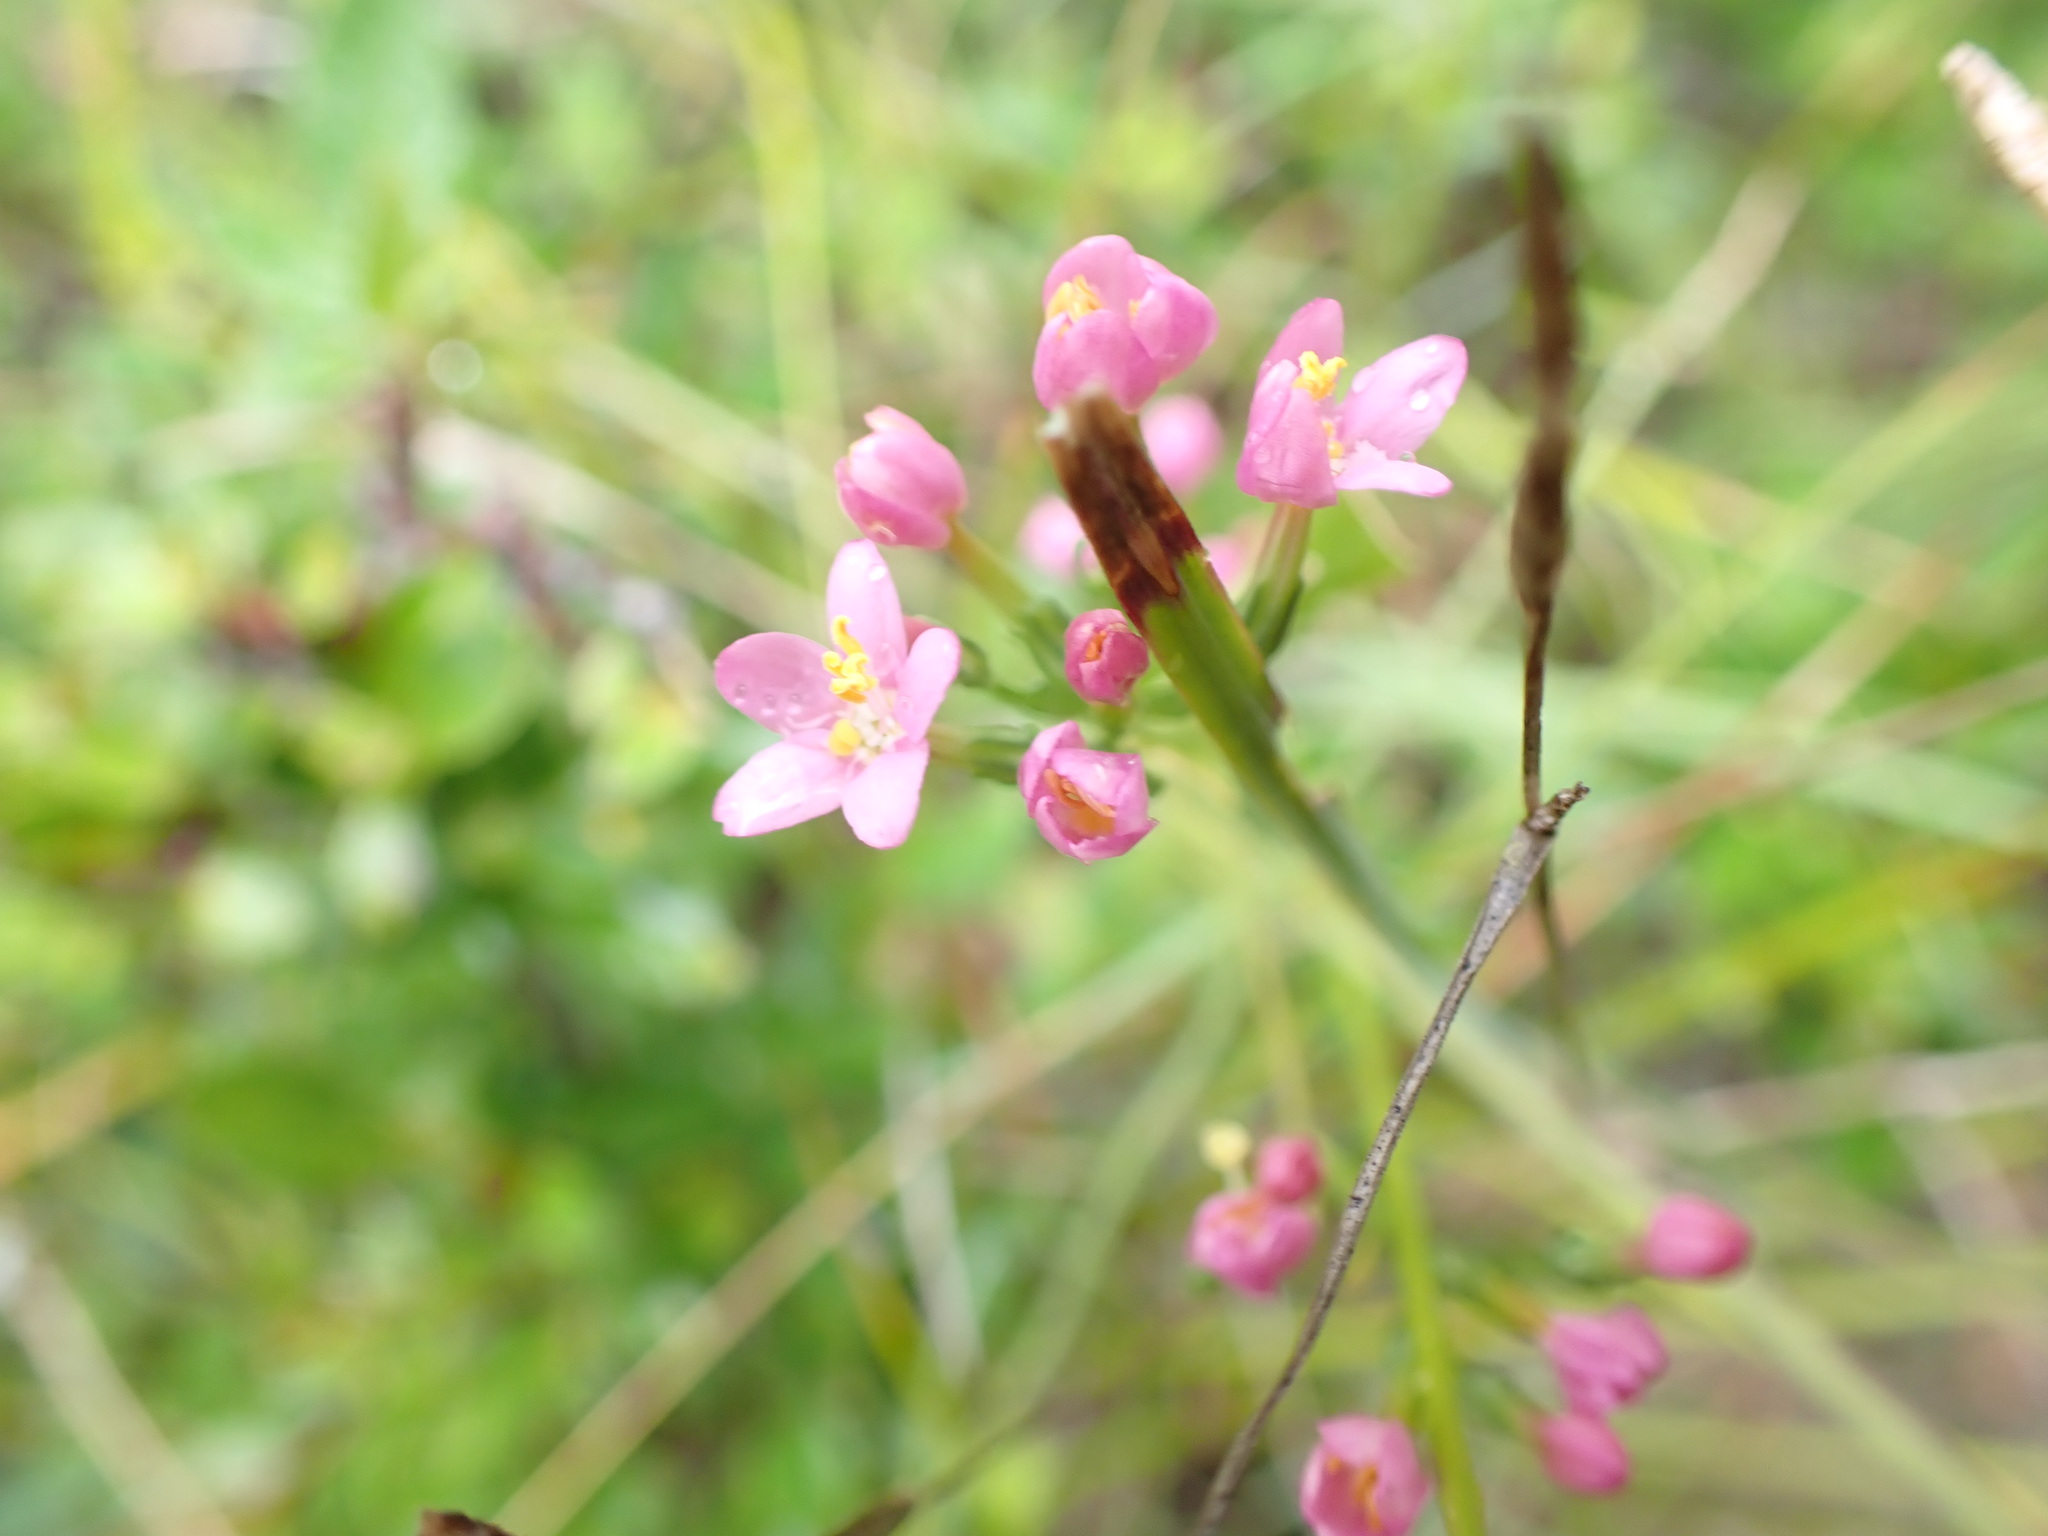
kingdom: Plantae
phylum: Tracheophyta
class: Magnoliopsida
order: Gentianales
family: Gentianaceae
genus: Centaurium
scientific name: Centaurium erythraea
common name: Common centaury
